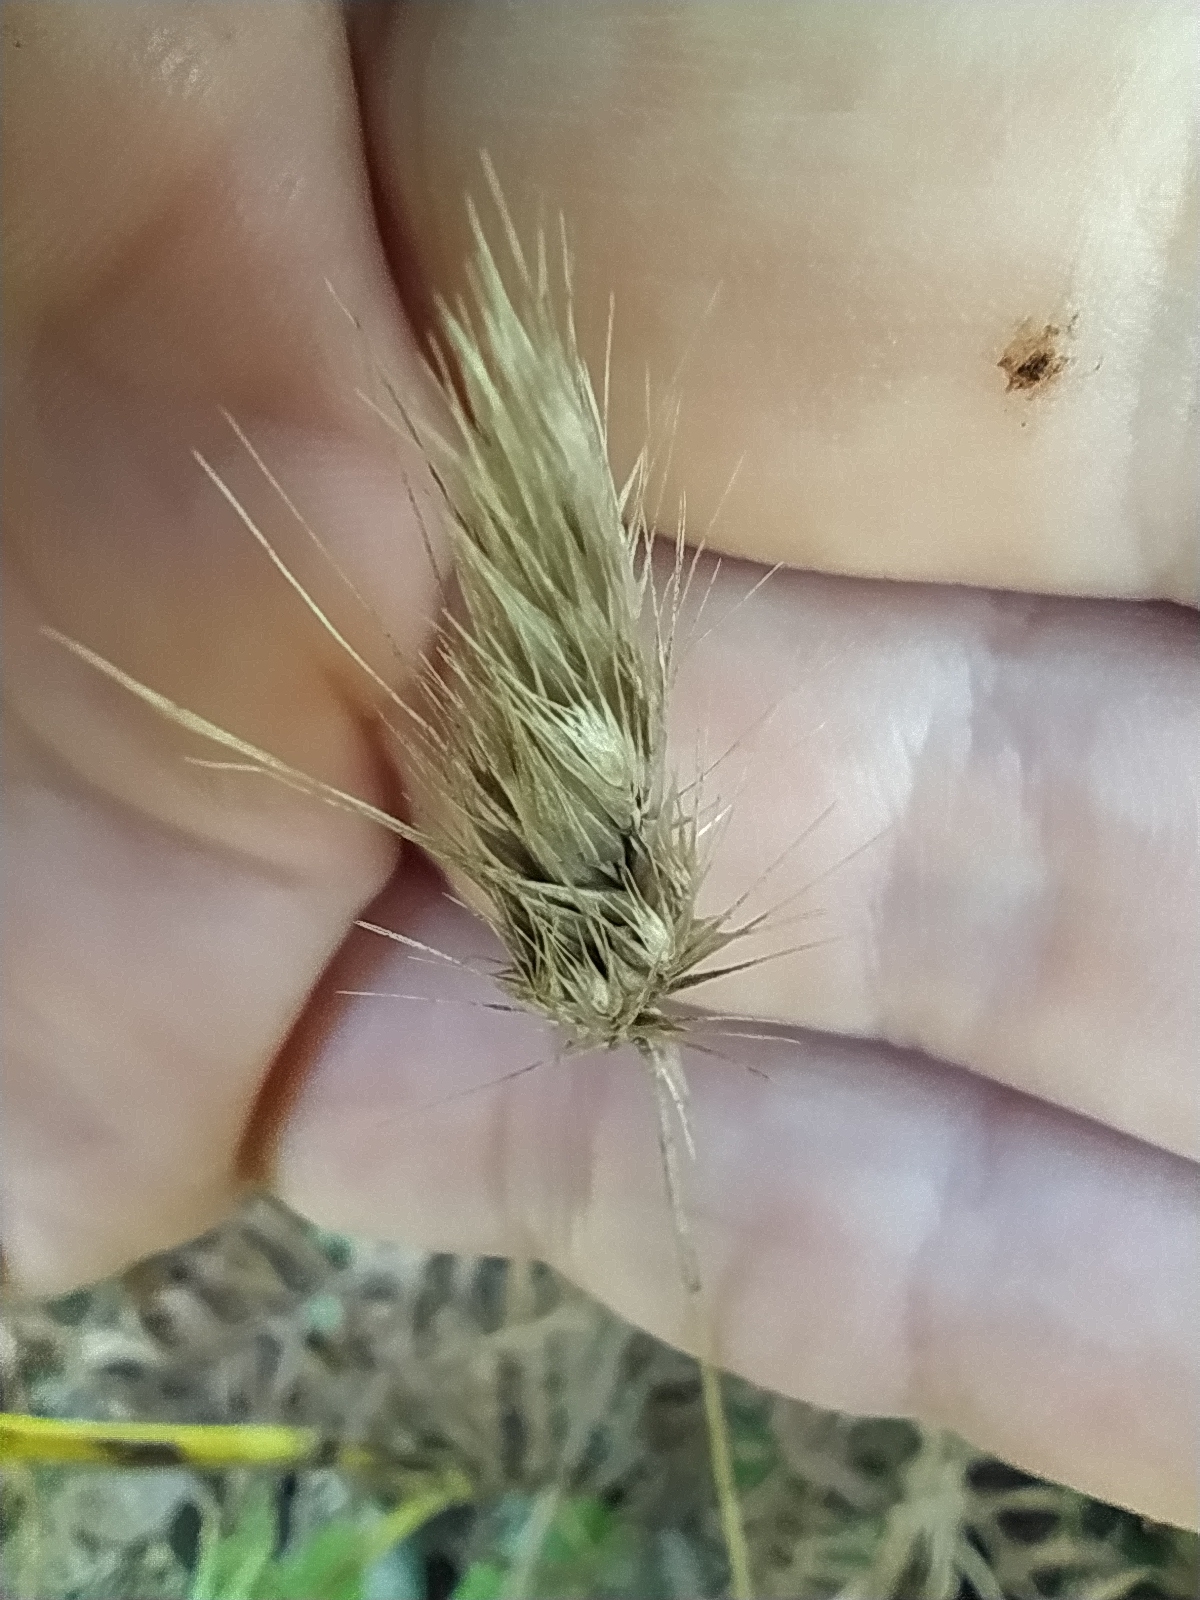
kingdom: Plantae
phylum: Tracheophyta
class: Liliopsida
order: Poales
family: Poaceae
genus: Cynosurus
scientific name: Cynosurus echinatus
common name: Rough dog's-tail
